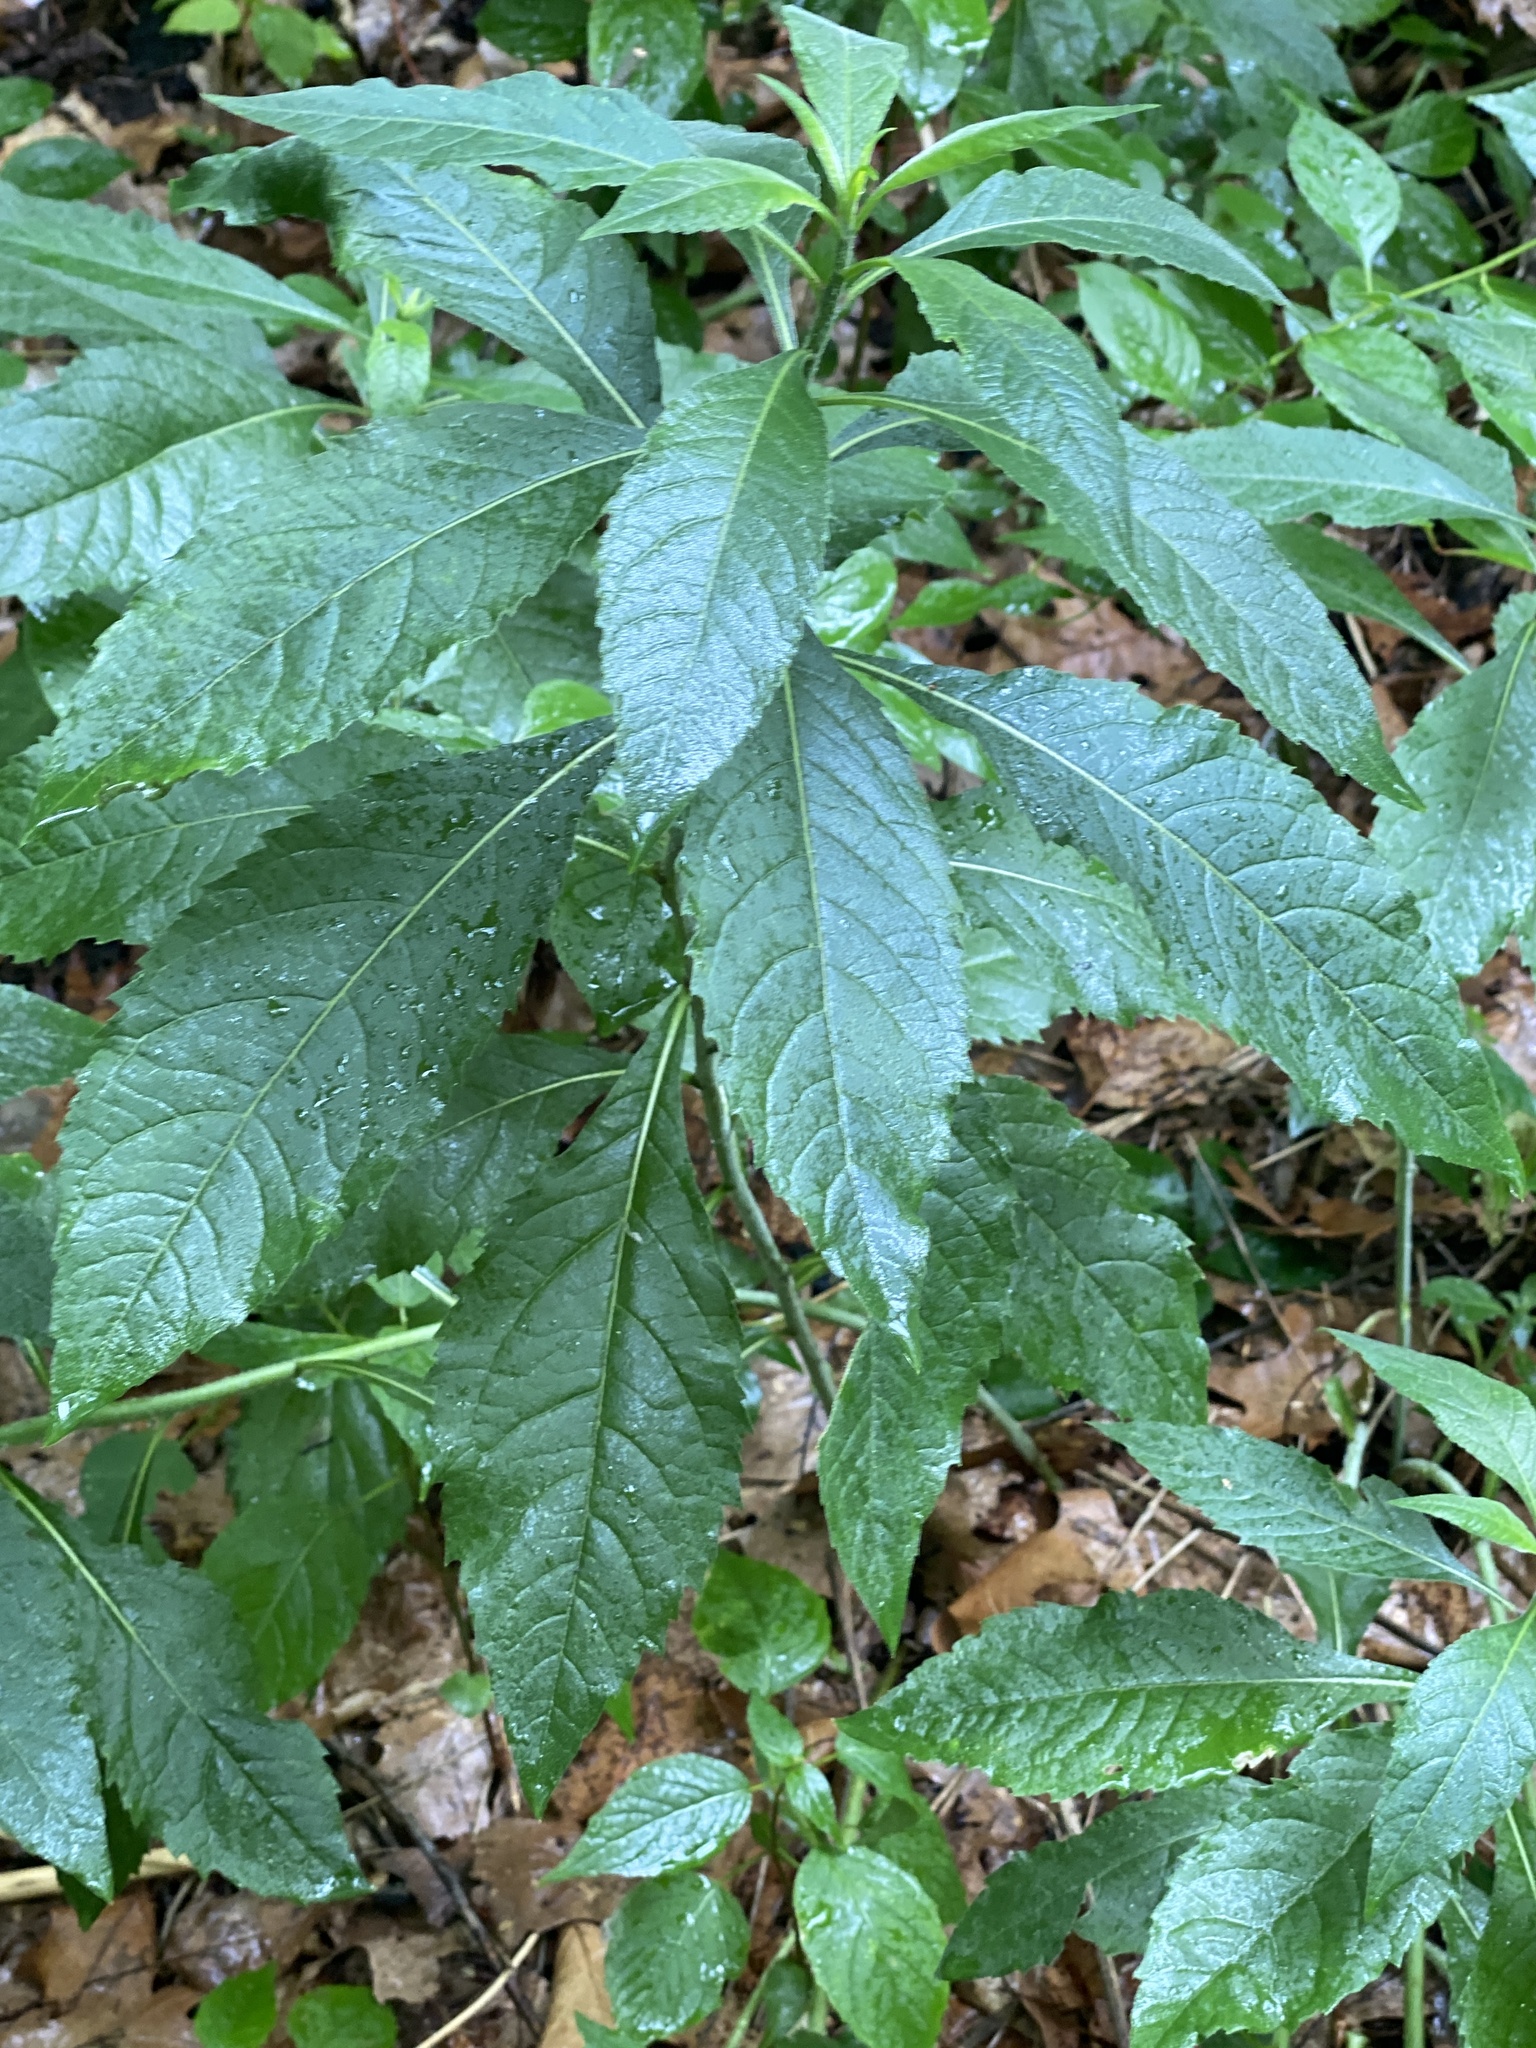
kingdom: Plantae
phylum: Tracheophyta
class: Magnoliopsida
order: Asterales
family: Asteraceae
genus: Verbesina
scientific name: Verbesina alternifolia
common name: Wingstem
